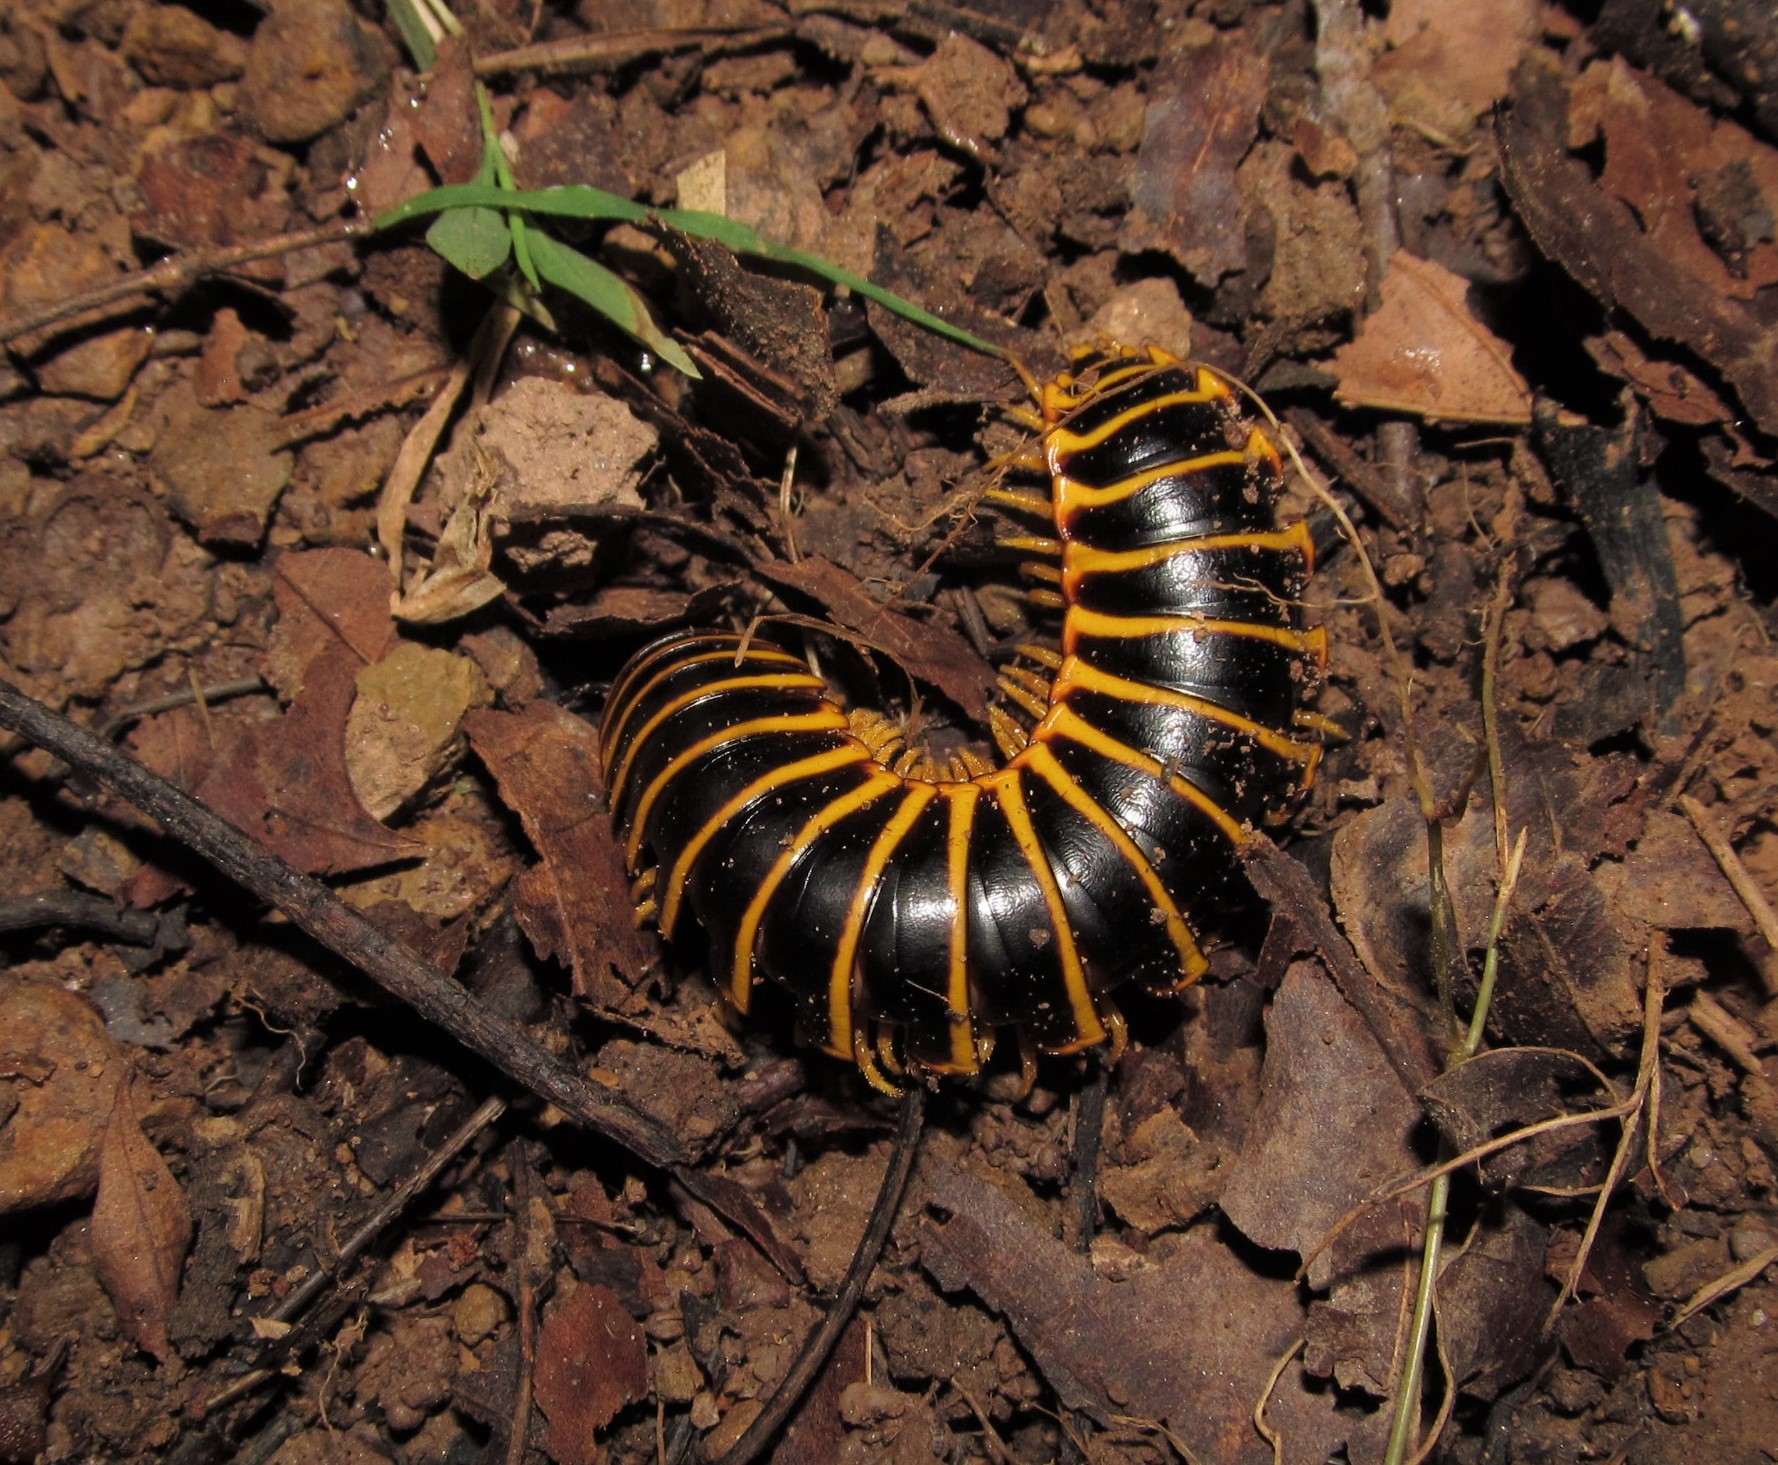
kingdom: Animalia
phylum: Arthropoda
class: Diplopoda
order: Polydesmida
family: Xystodesmidae
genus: Apheloria
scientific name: Apheloria virginiensis
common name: Black-and-gold flat millipede
